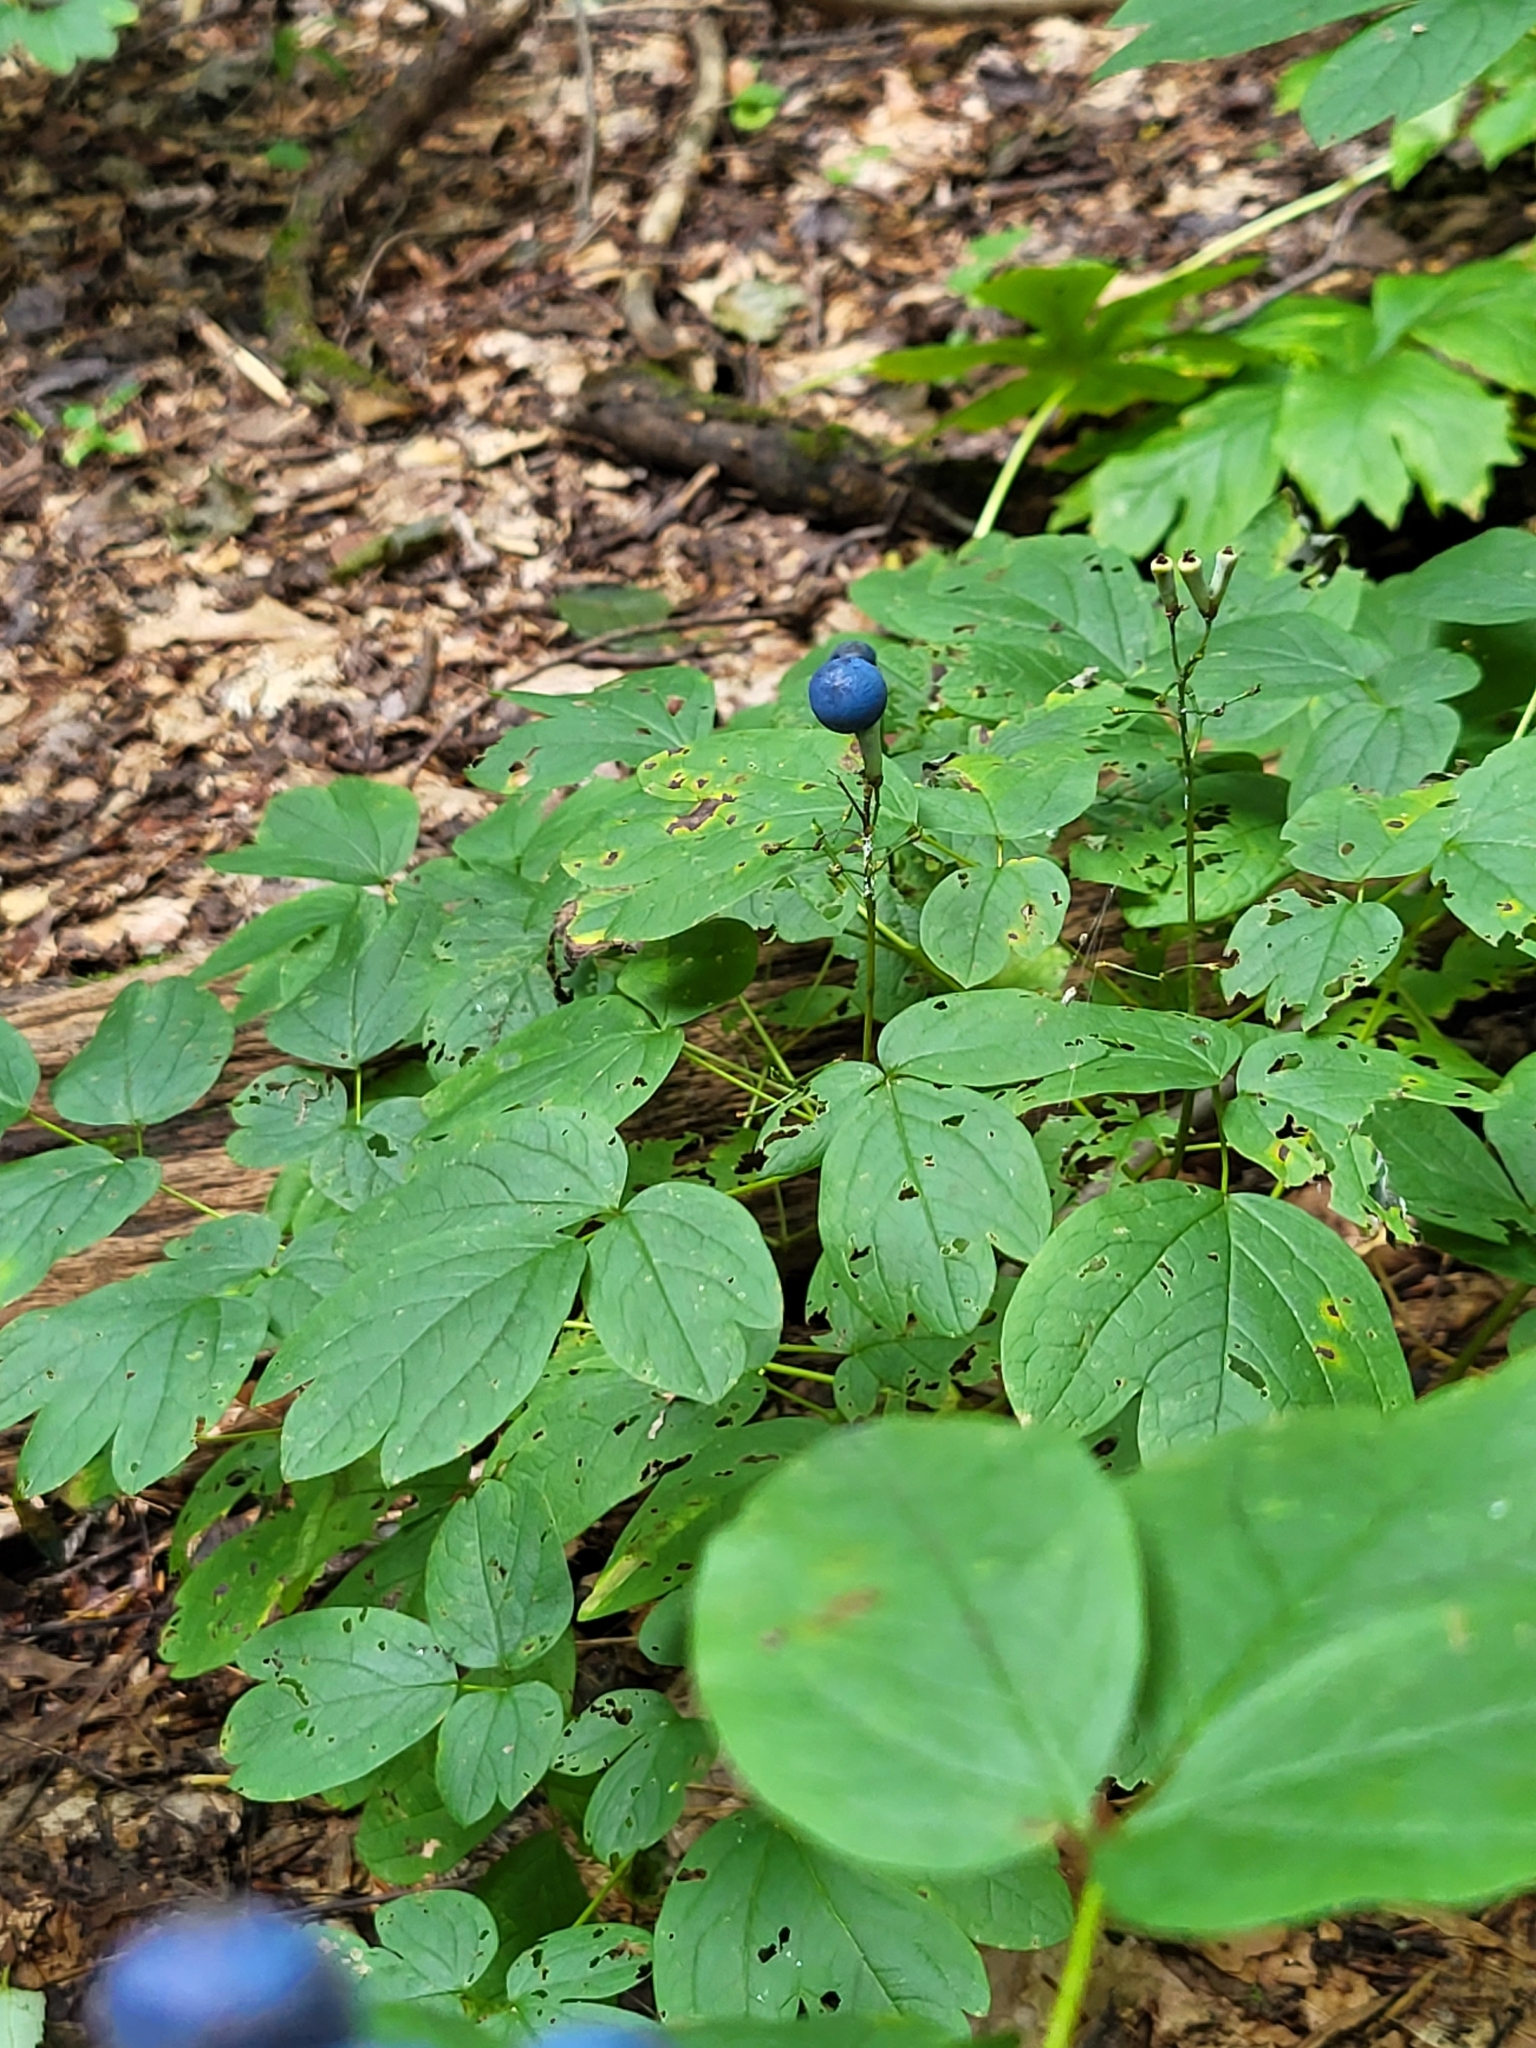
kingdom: Plantae
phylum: Tracheophyta
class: Magnoliopsida
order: Ranunculales
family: Berberidaceae
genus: Caulophyllum
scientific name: Caulophyllum thalictroides
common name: Blue cohosh
